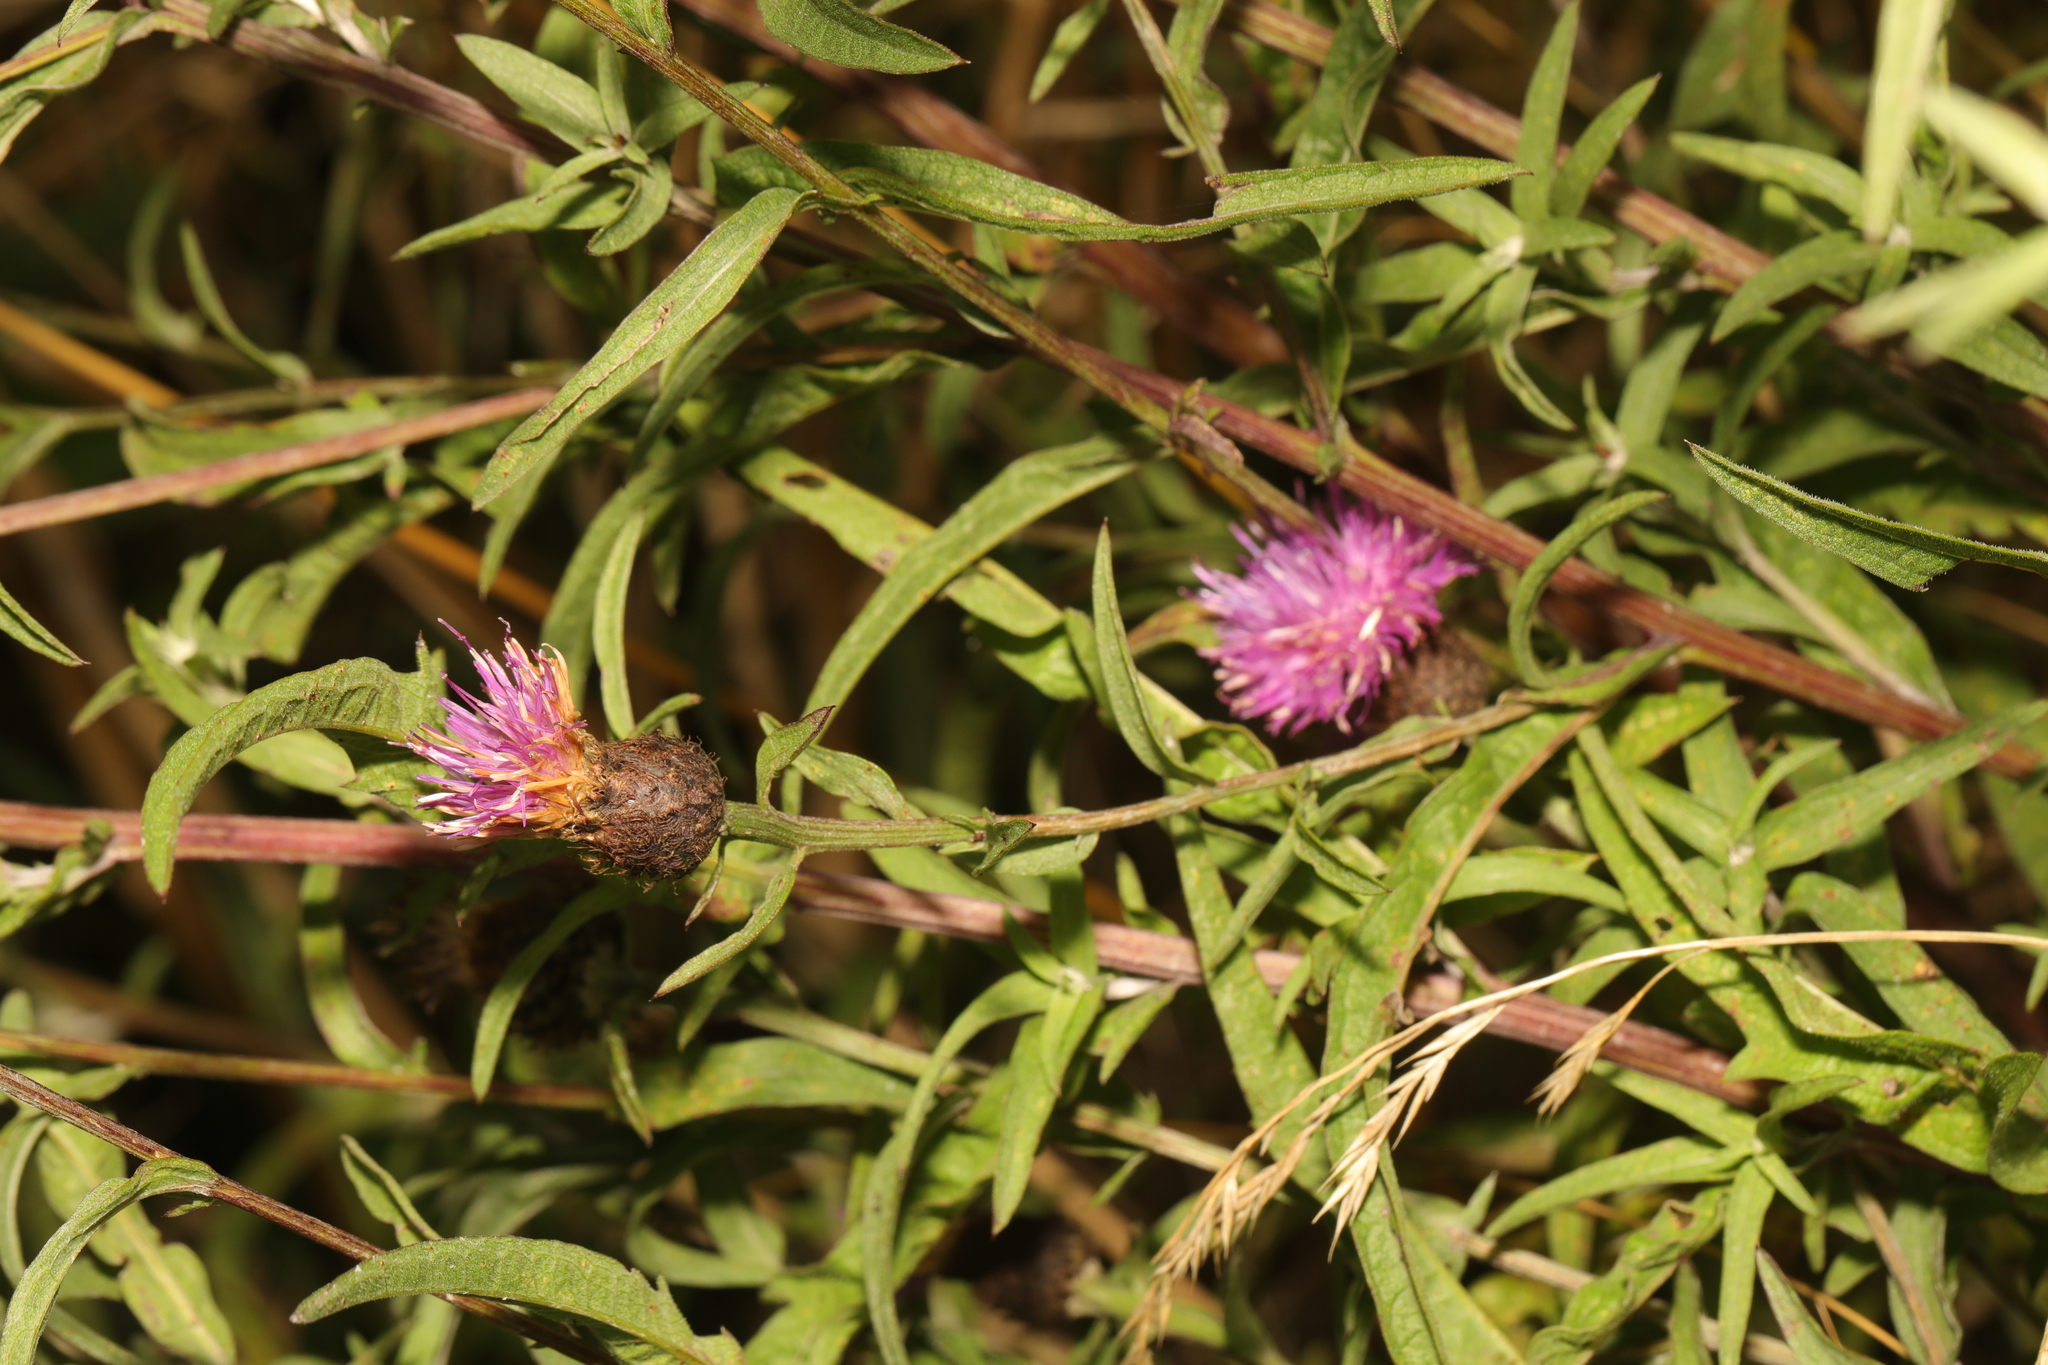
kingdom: Plantae
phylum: Tracheophyta
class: Magnoliopsida
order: Asterales
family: Asteraceae
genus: Centaurea
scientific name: Centaurea nigra
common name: Lesser knapweed
